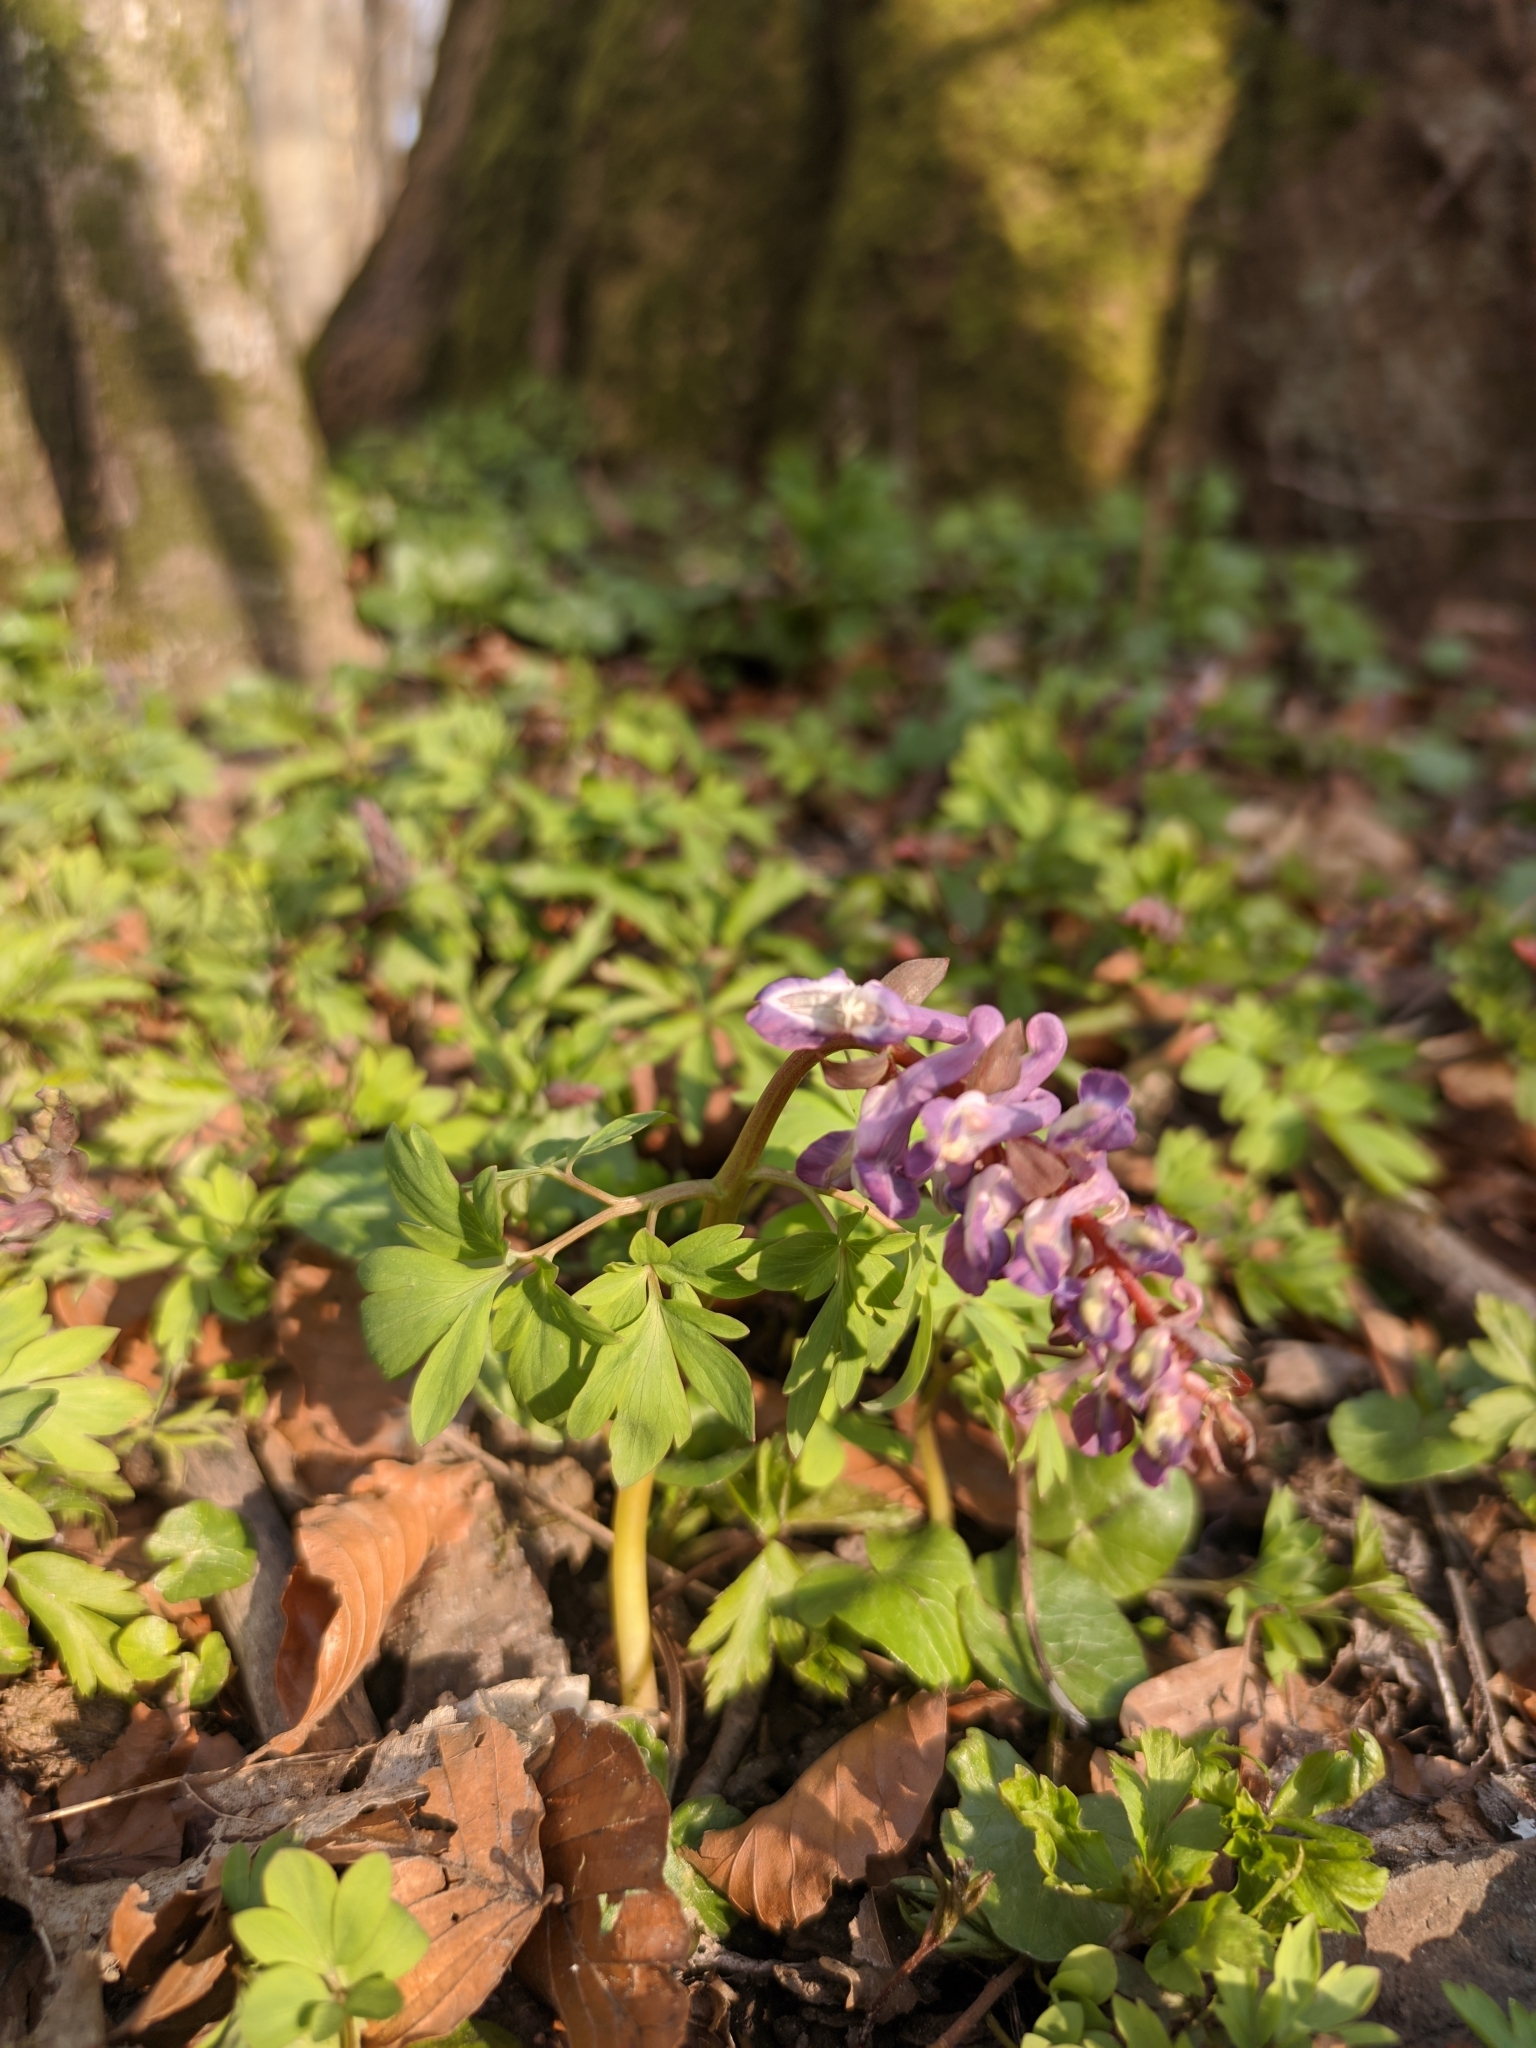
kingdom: Plantae
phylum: Tracheophyta
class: Magnoliopsida
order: Ranunculales
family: Papaveraceae
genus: Corydalis
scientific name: Corydalis cava
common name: Hollowroot
